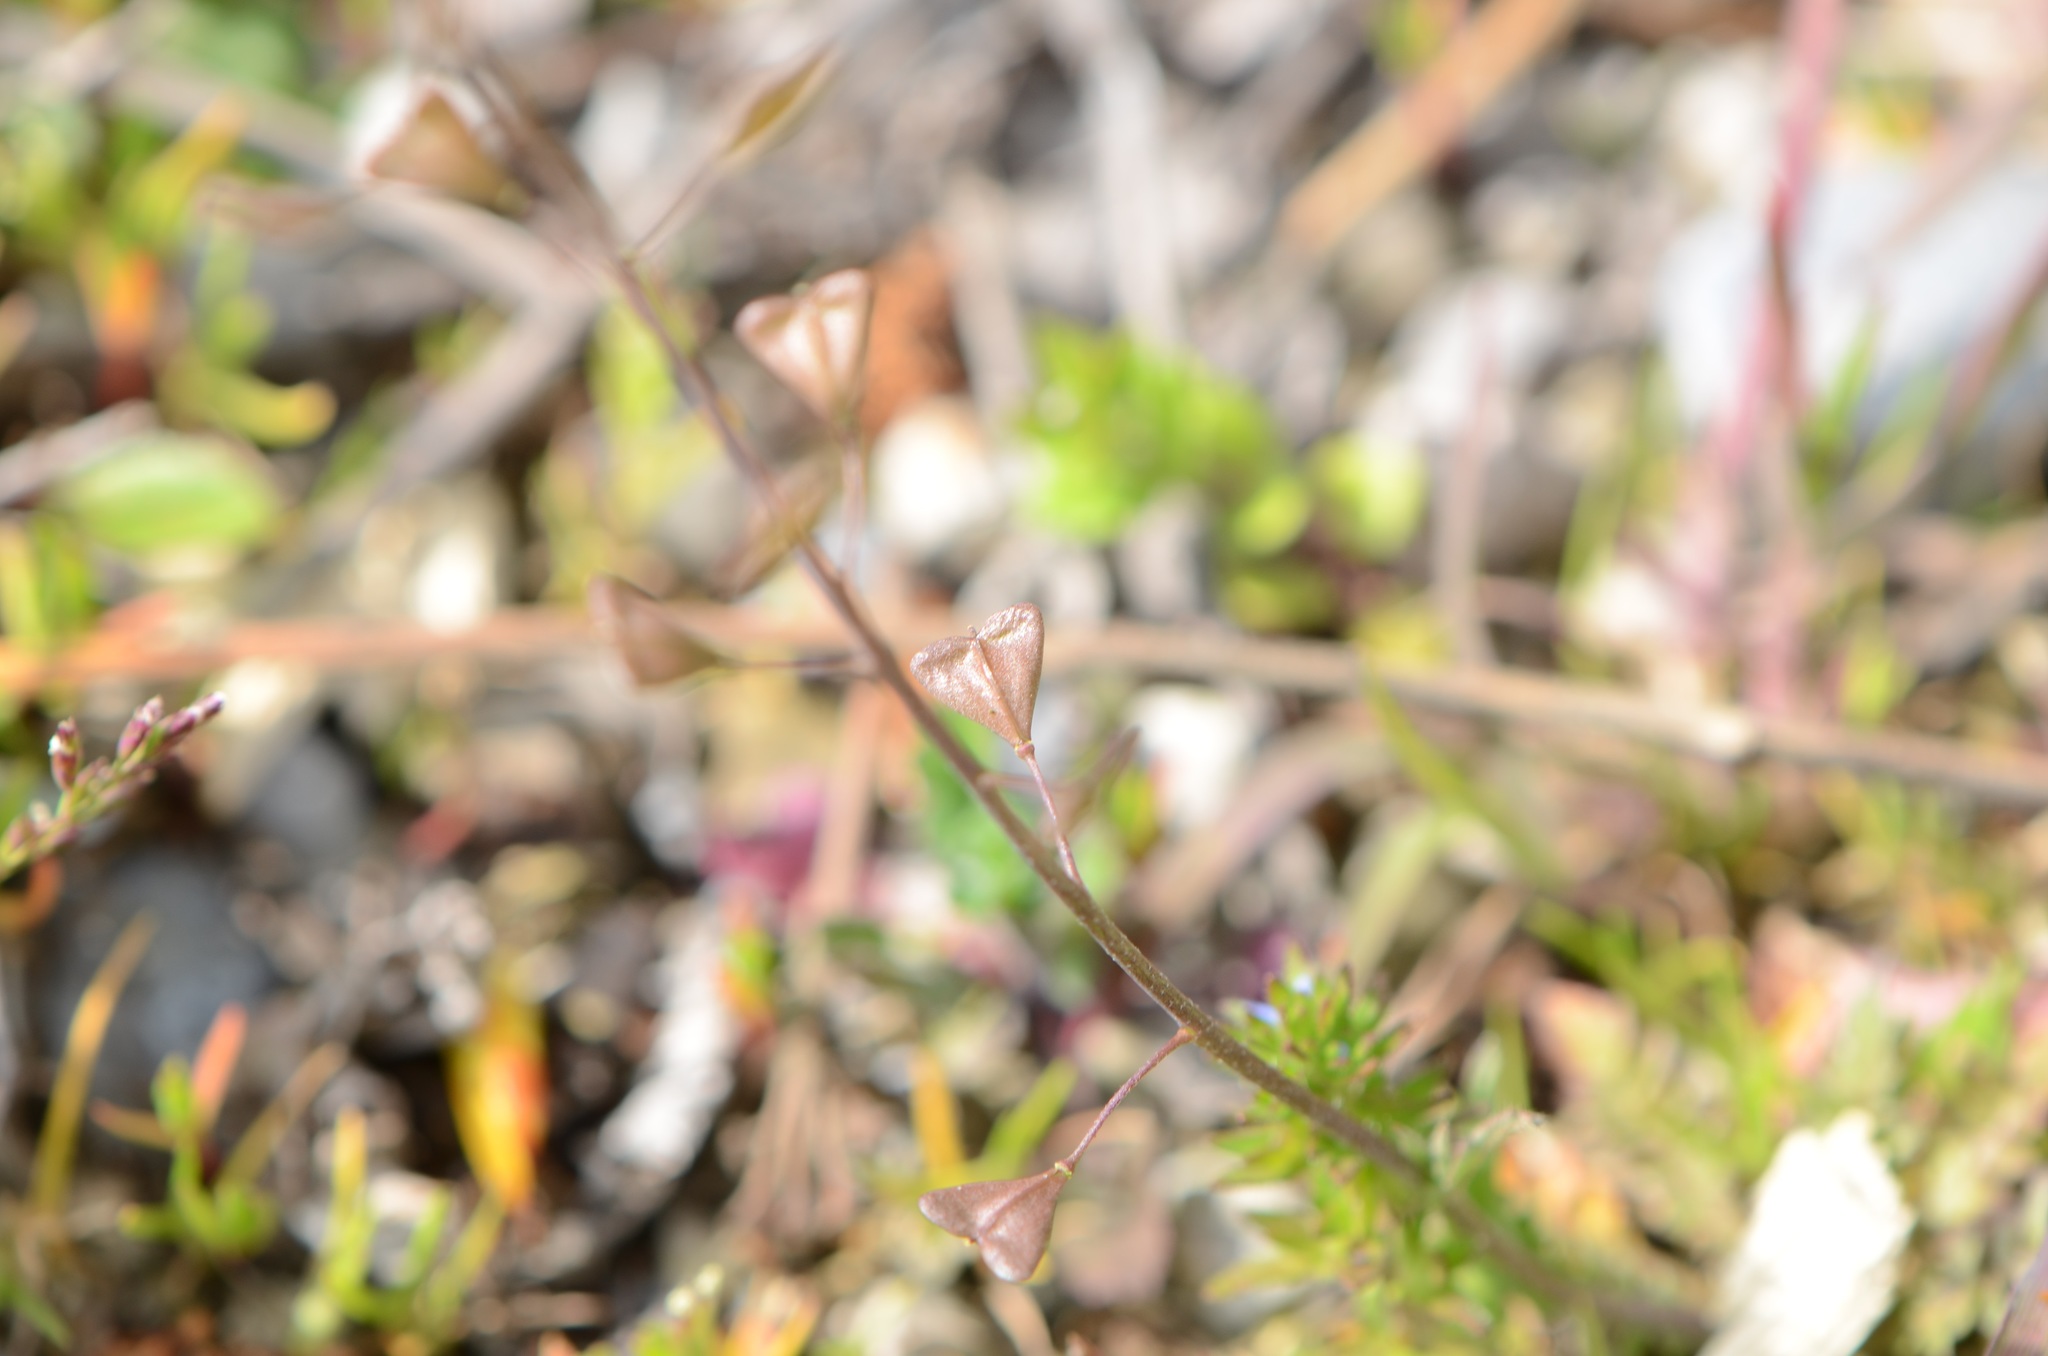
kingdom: Plantae
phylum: Tracheophyta
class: Magnoliopsida
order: Brassicales
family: Brassicaceae
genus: Capsella
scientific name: Capsella bursa-pastoris
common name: Shepherd's purse
